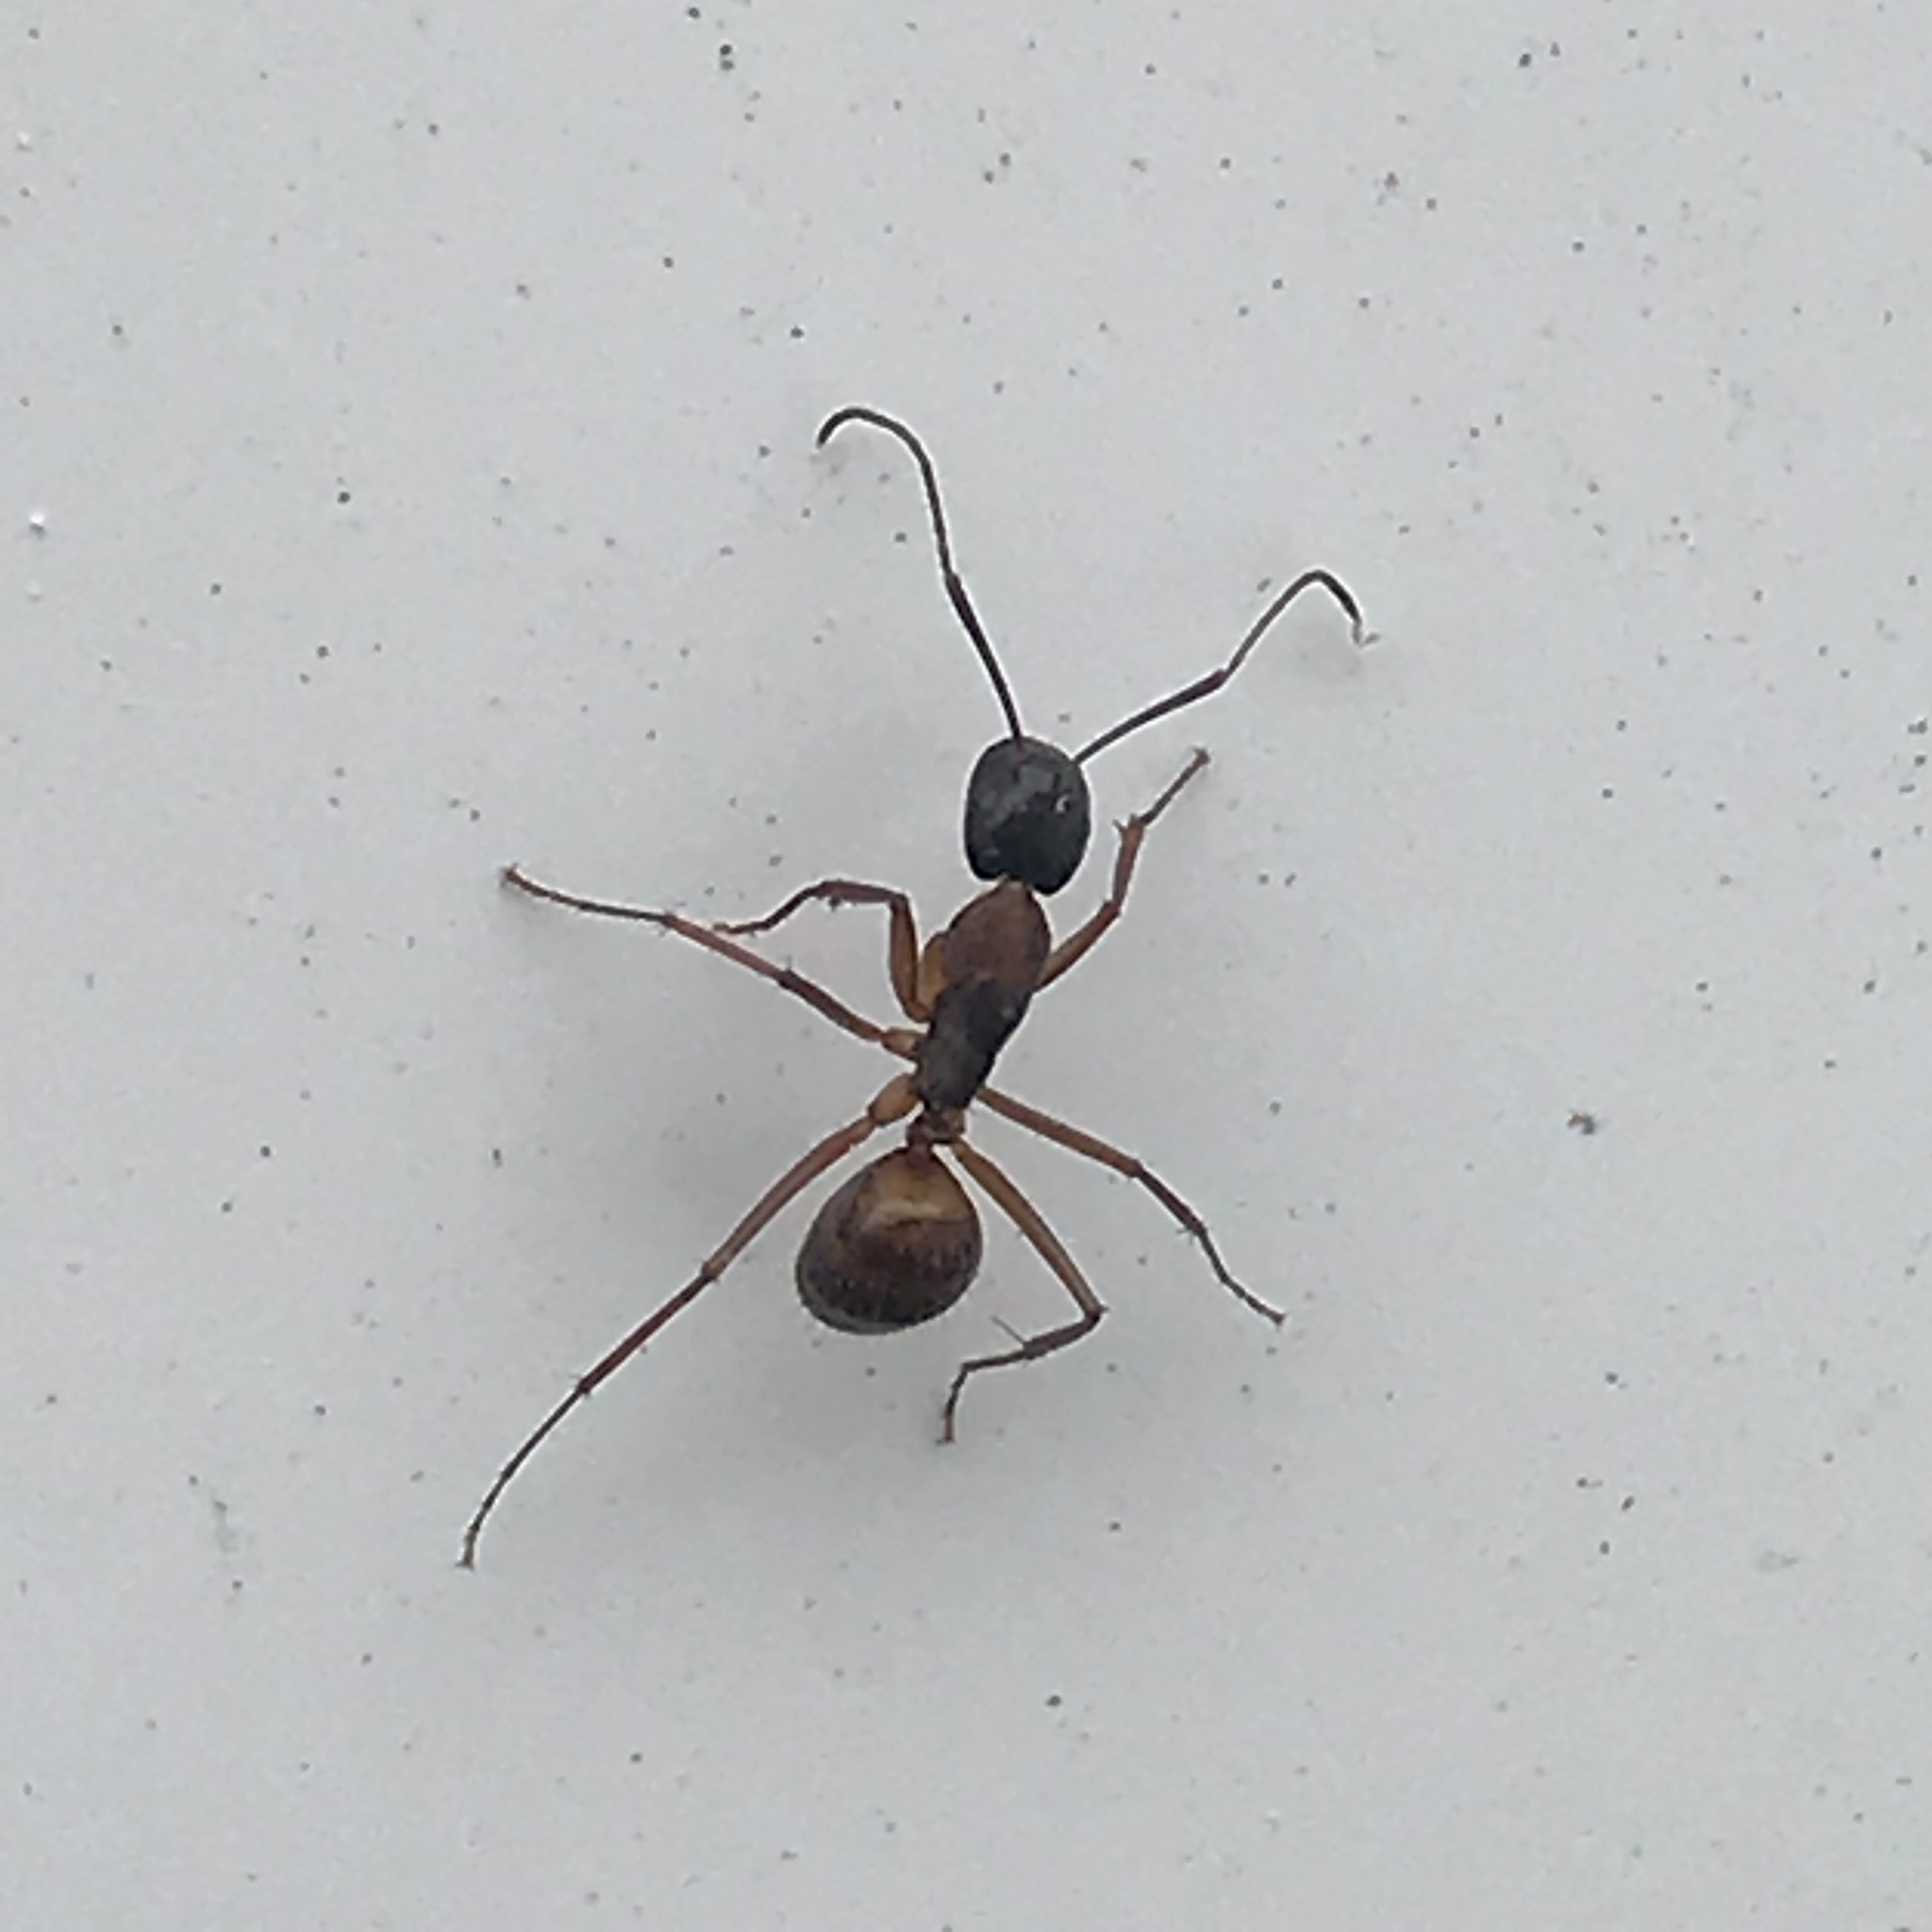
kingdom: Animalia
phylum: Arthropoda
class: Insecta
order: Hymenoptera
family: Formicidae
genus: Camponotus
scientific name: Camponotus americanus
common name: American carpenter ant
